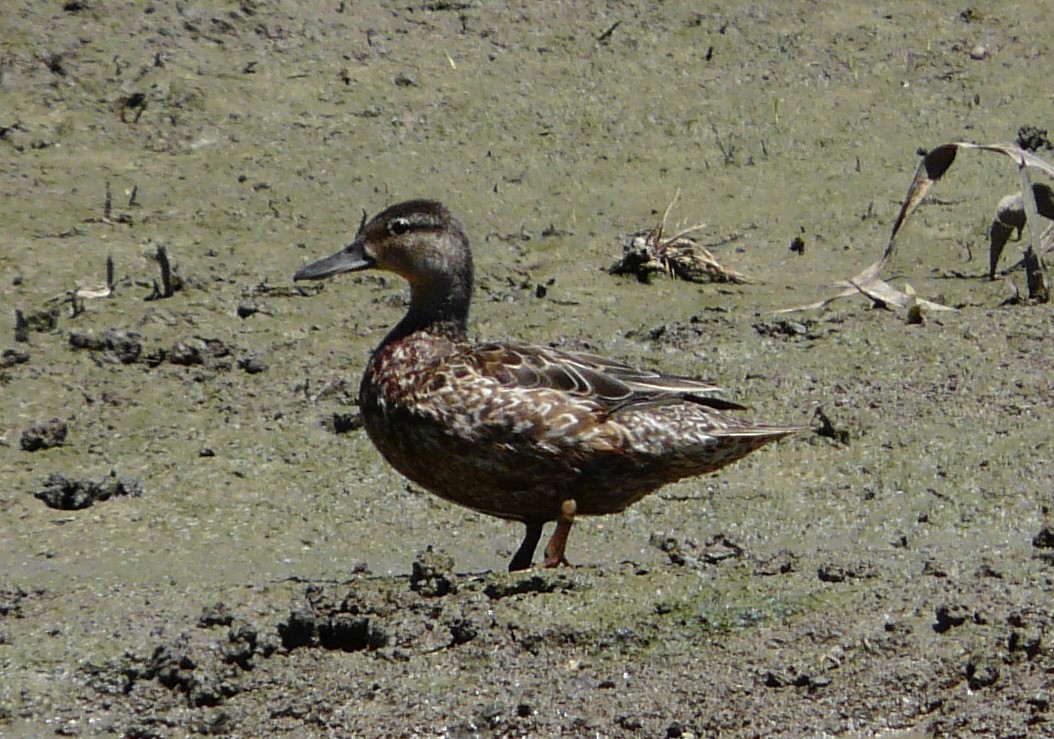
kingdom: Animalia
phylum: Chordata
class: Aves
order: Anseriformes
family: Anatidae
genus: Spatula
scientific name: Spatula discors
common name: Blue-winged teal
